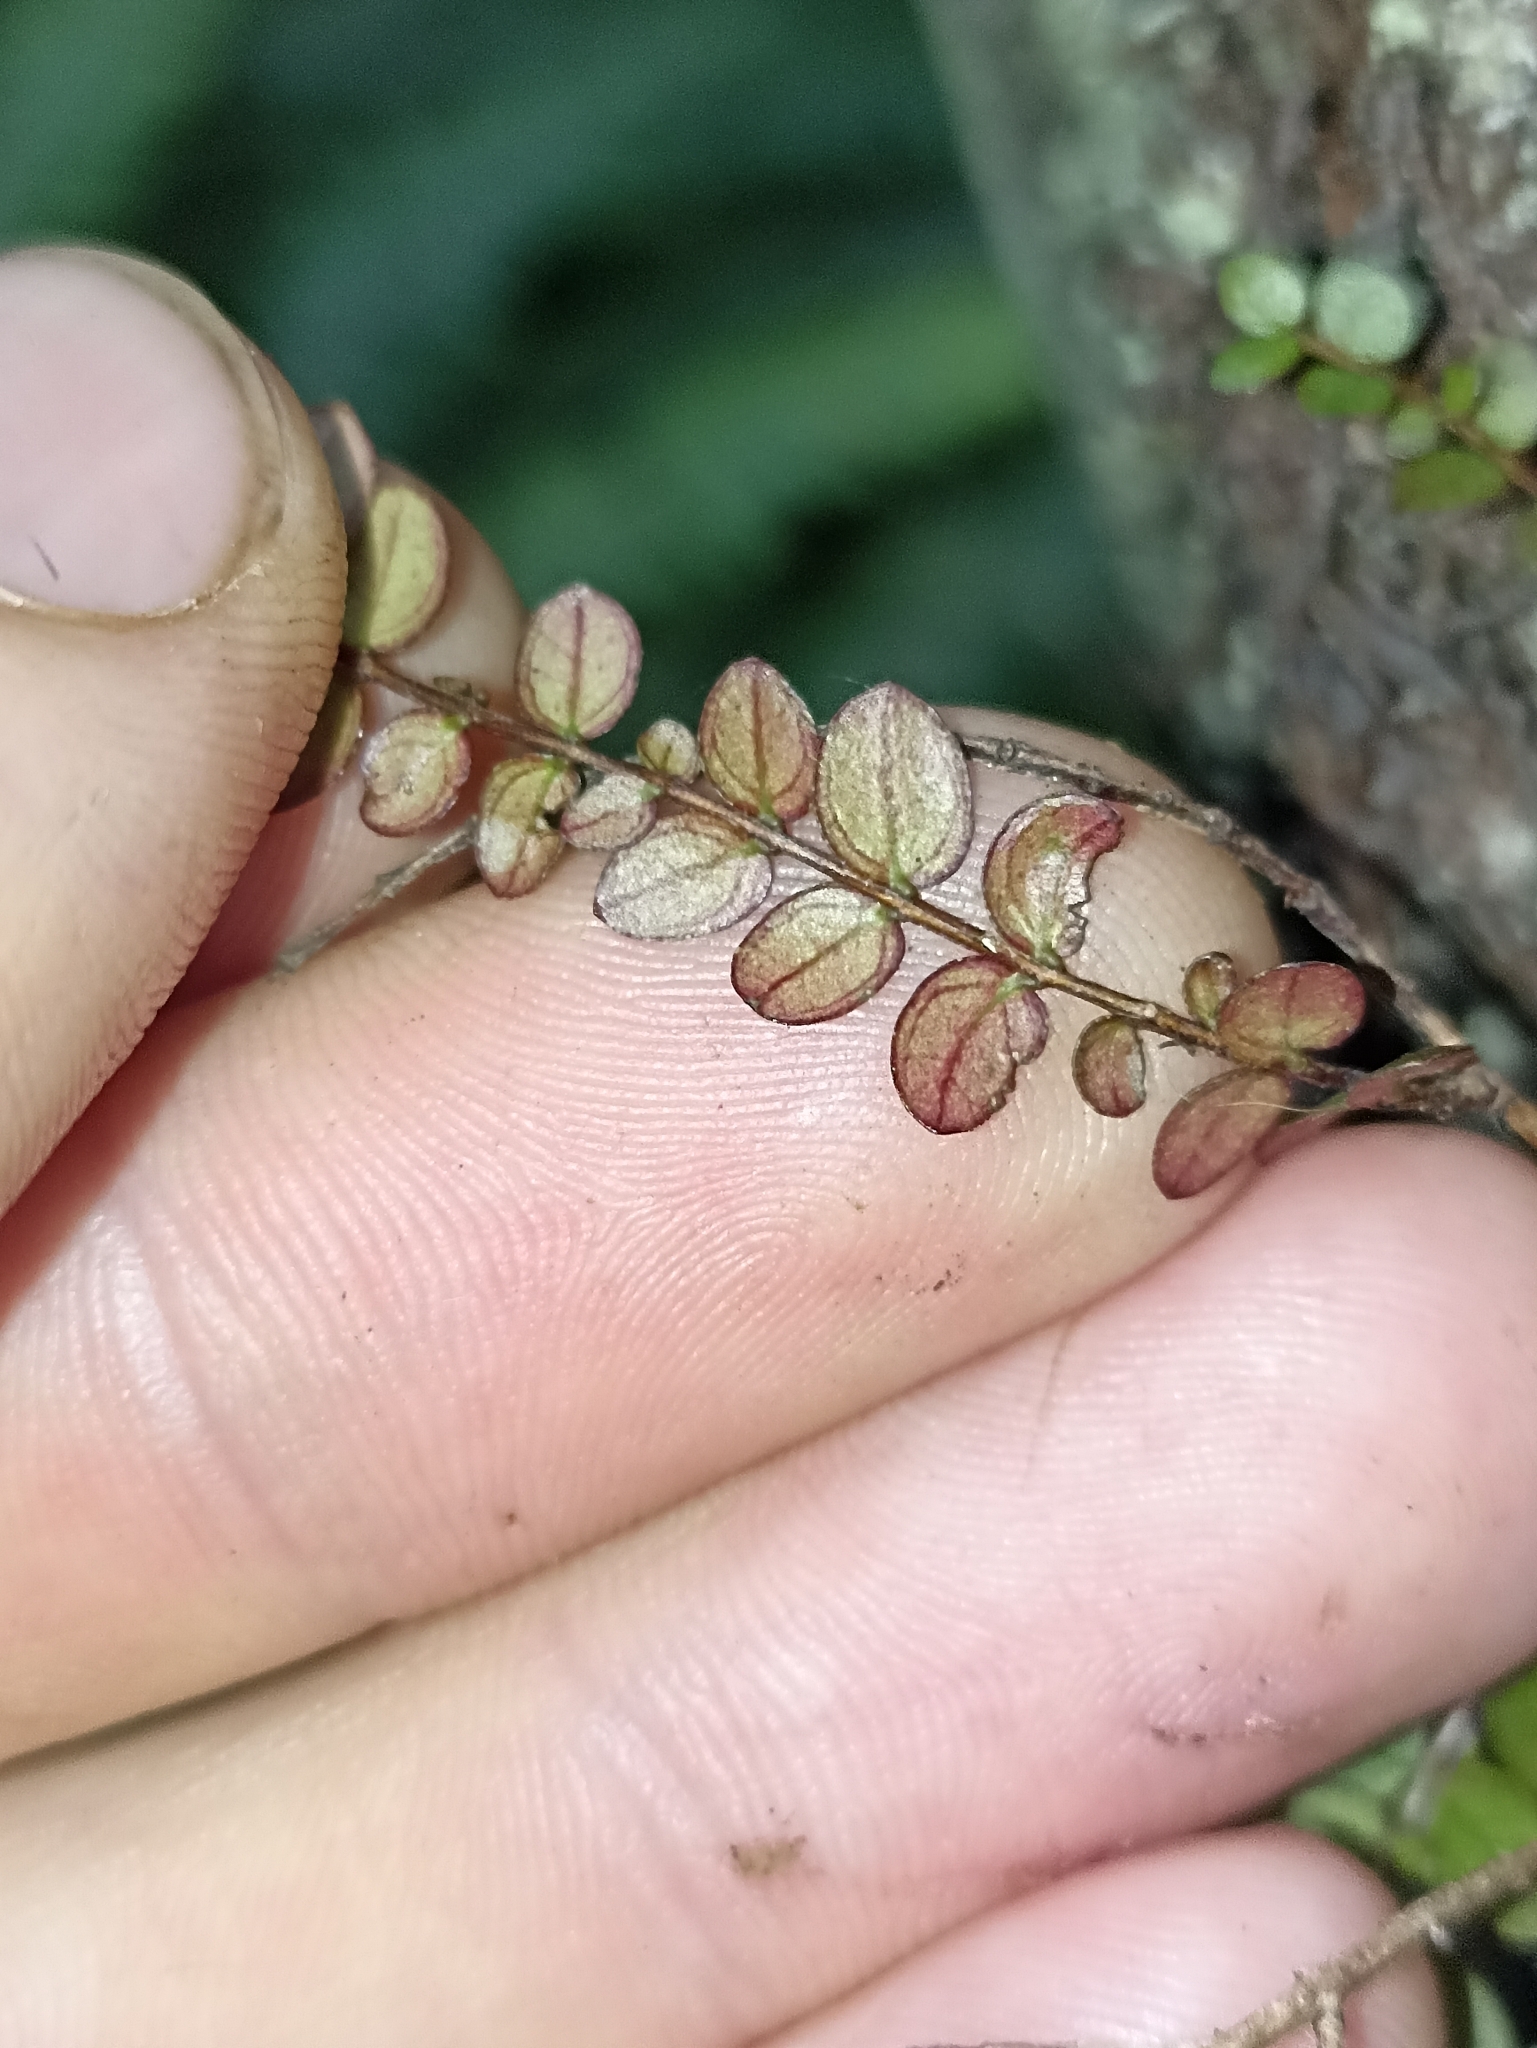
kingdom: Plantae
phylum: Tracheophyta
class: Magnoliopsida
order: Myrtales
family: Myrtaceae
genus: Metrosideros
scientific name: Metrosideros diffusa
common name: Small ratavine
